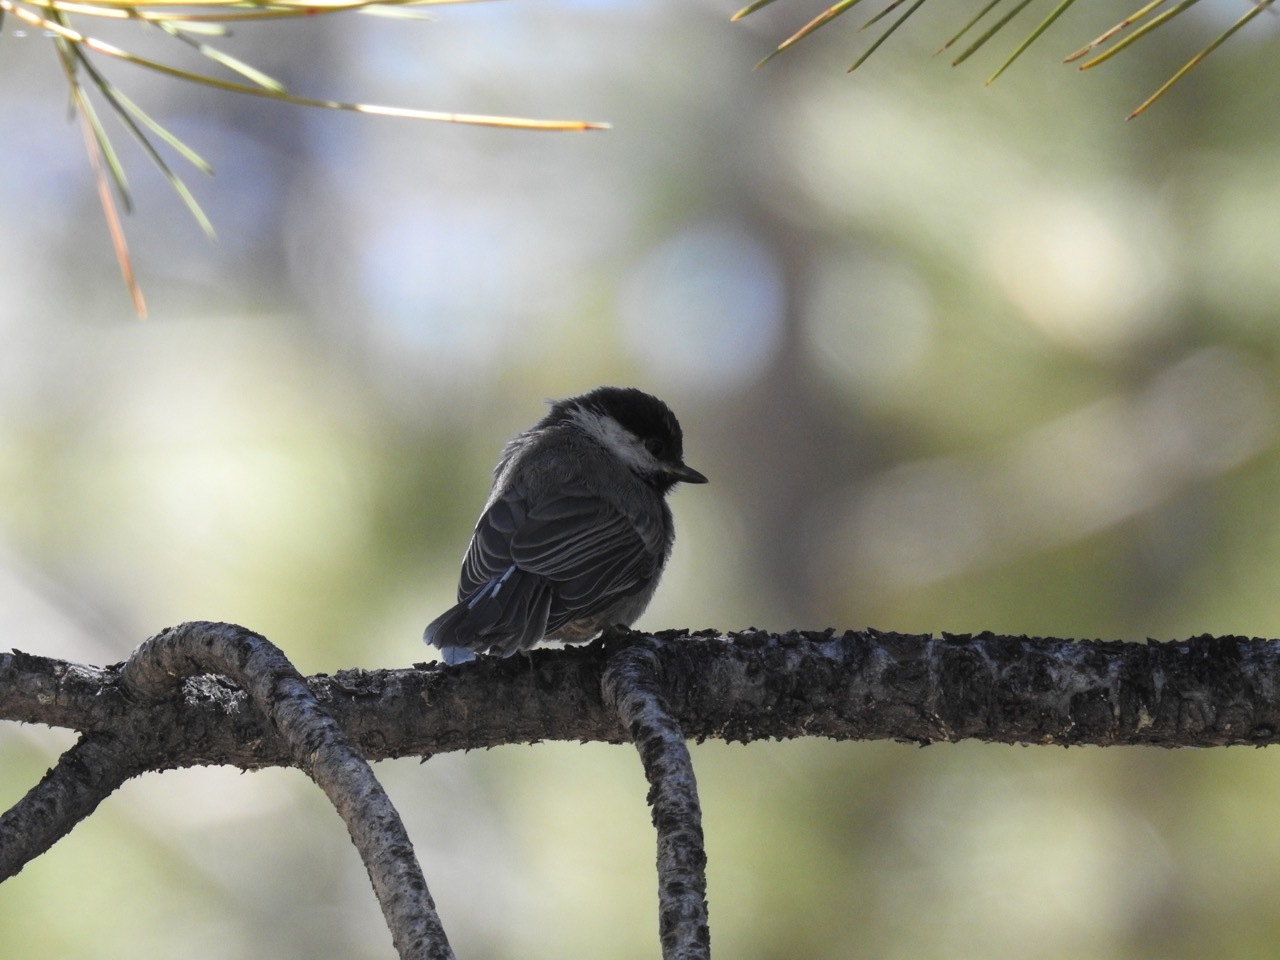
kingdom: Animalia
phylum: Chordata
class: Aves
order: Passeriformes
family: Paridae
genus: Poecile
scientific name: Poecile gambeli
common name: Mountain chickadee
